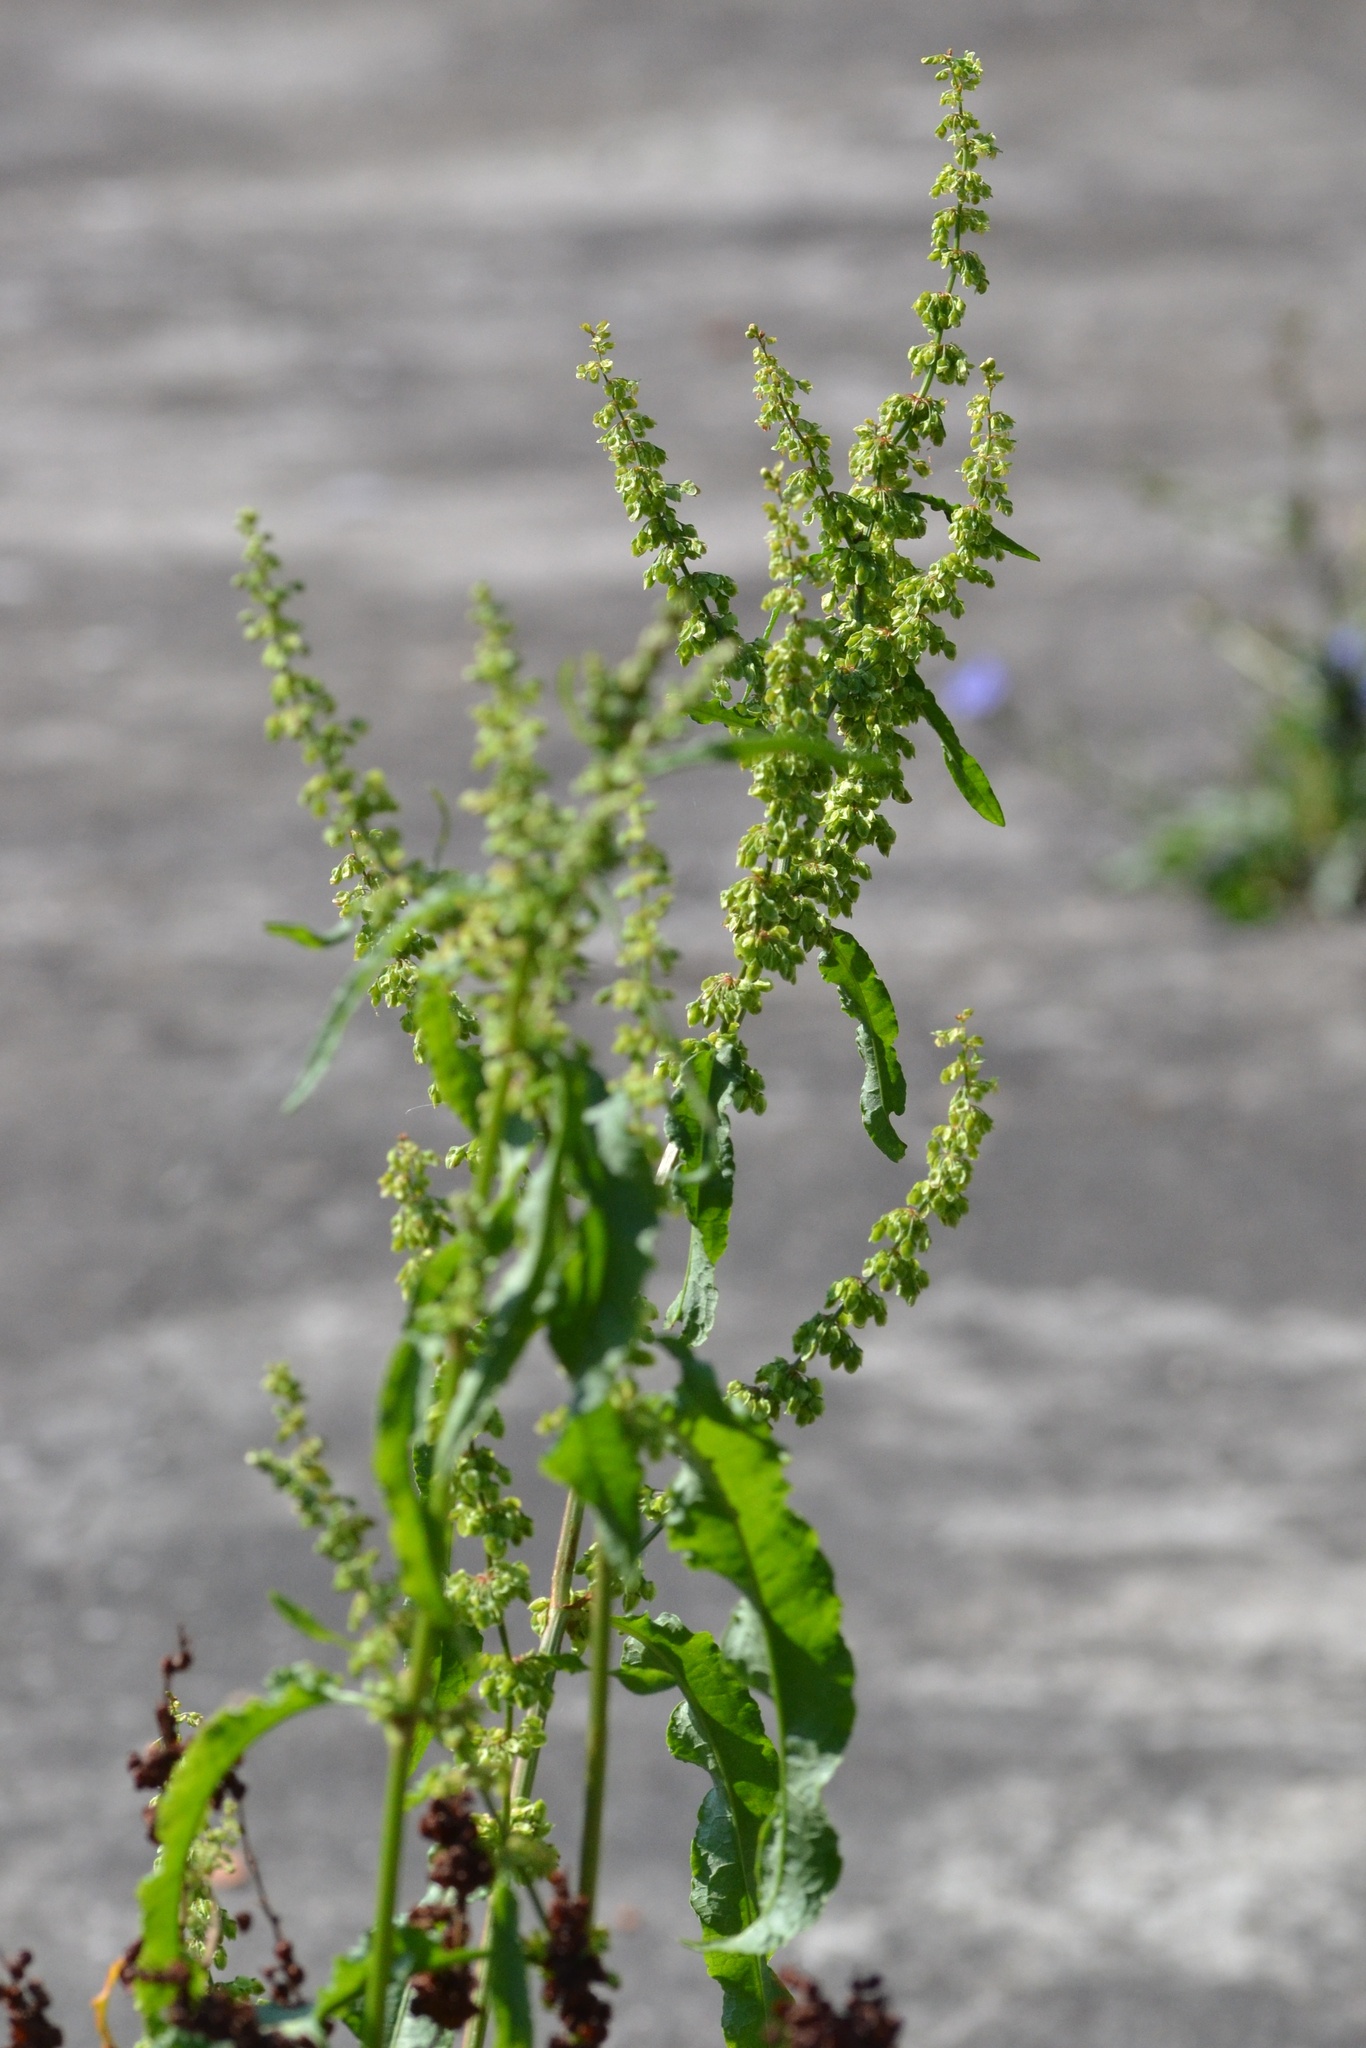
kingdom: Plantae
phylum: Tracheophyta
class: Magnoliopsida
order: Caryophyllales
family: Polygonaceae
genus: Rumex
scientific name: Rumex crispus
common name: Curled dock
